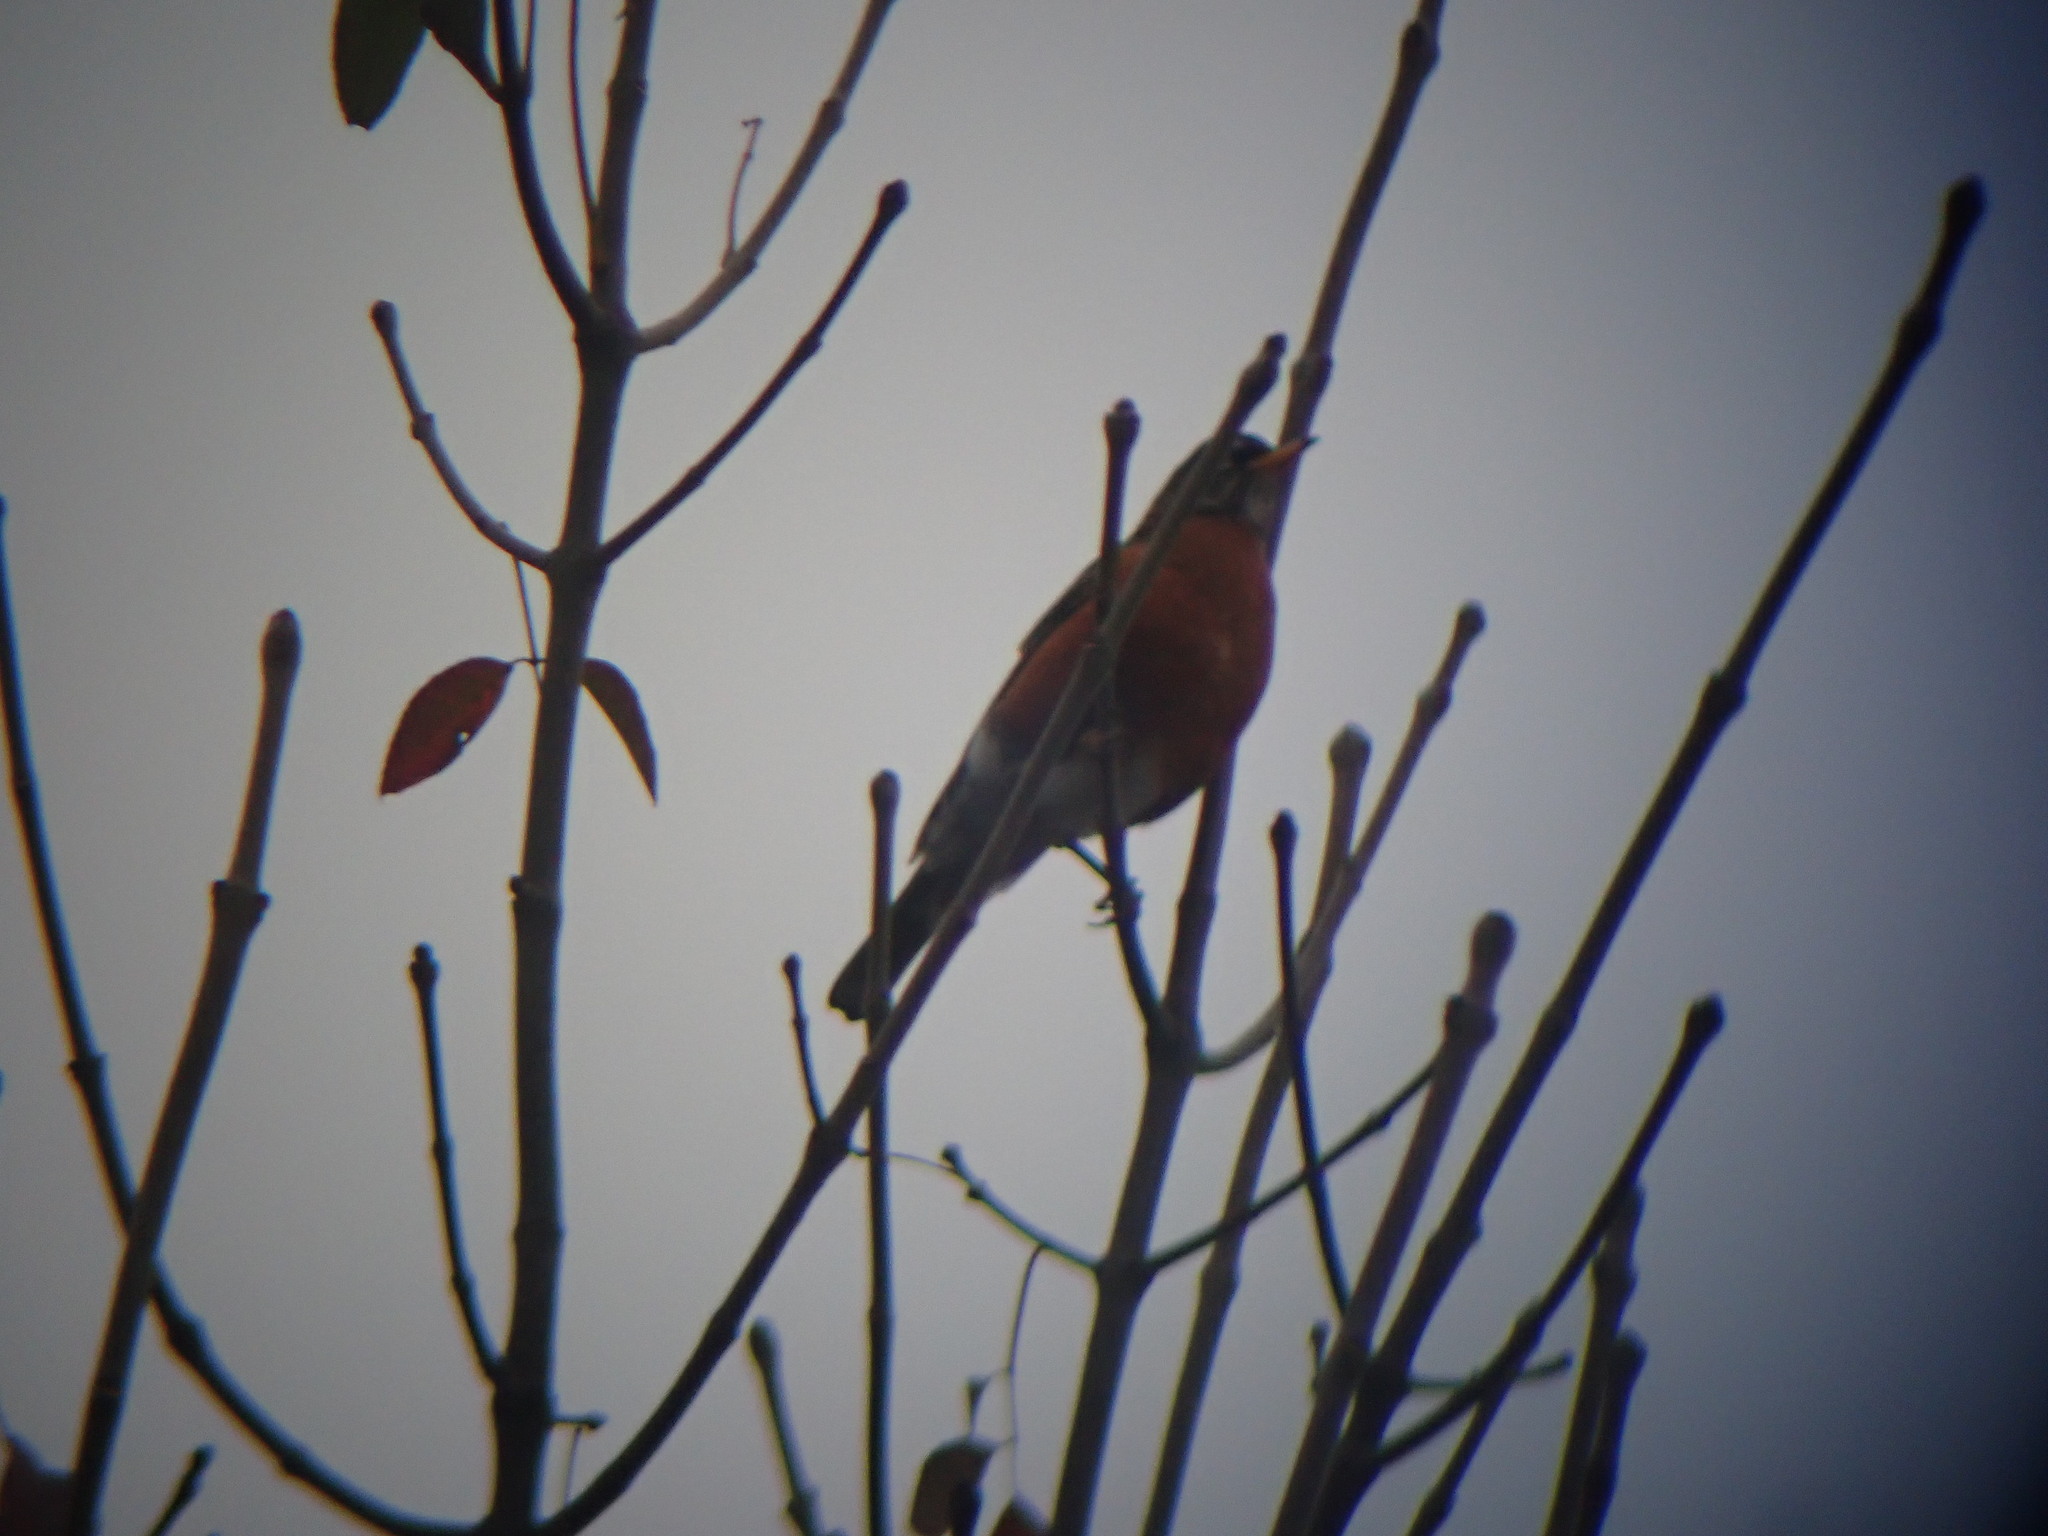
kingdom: Animalia
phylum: Chordata
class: Aves
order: Passeriformes
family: Turdidae
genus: Turdus
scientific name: Turdus migratorius
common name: American robin
